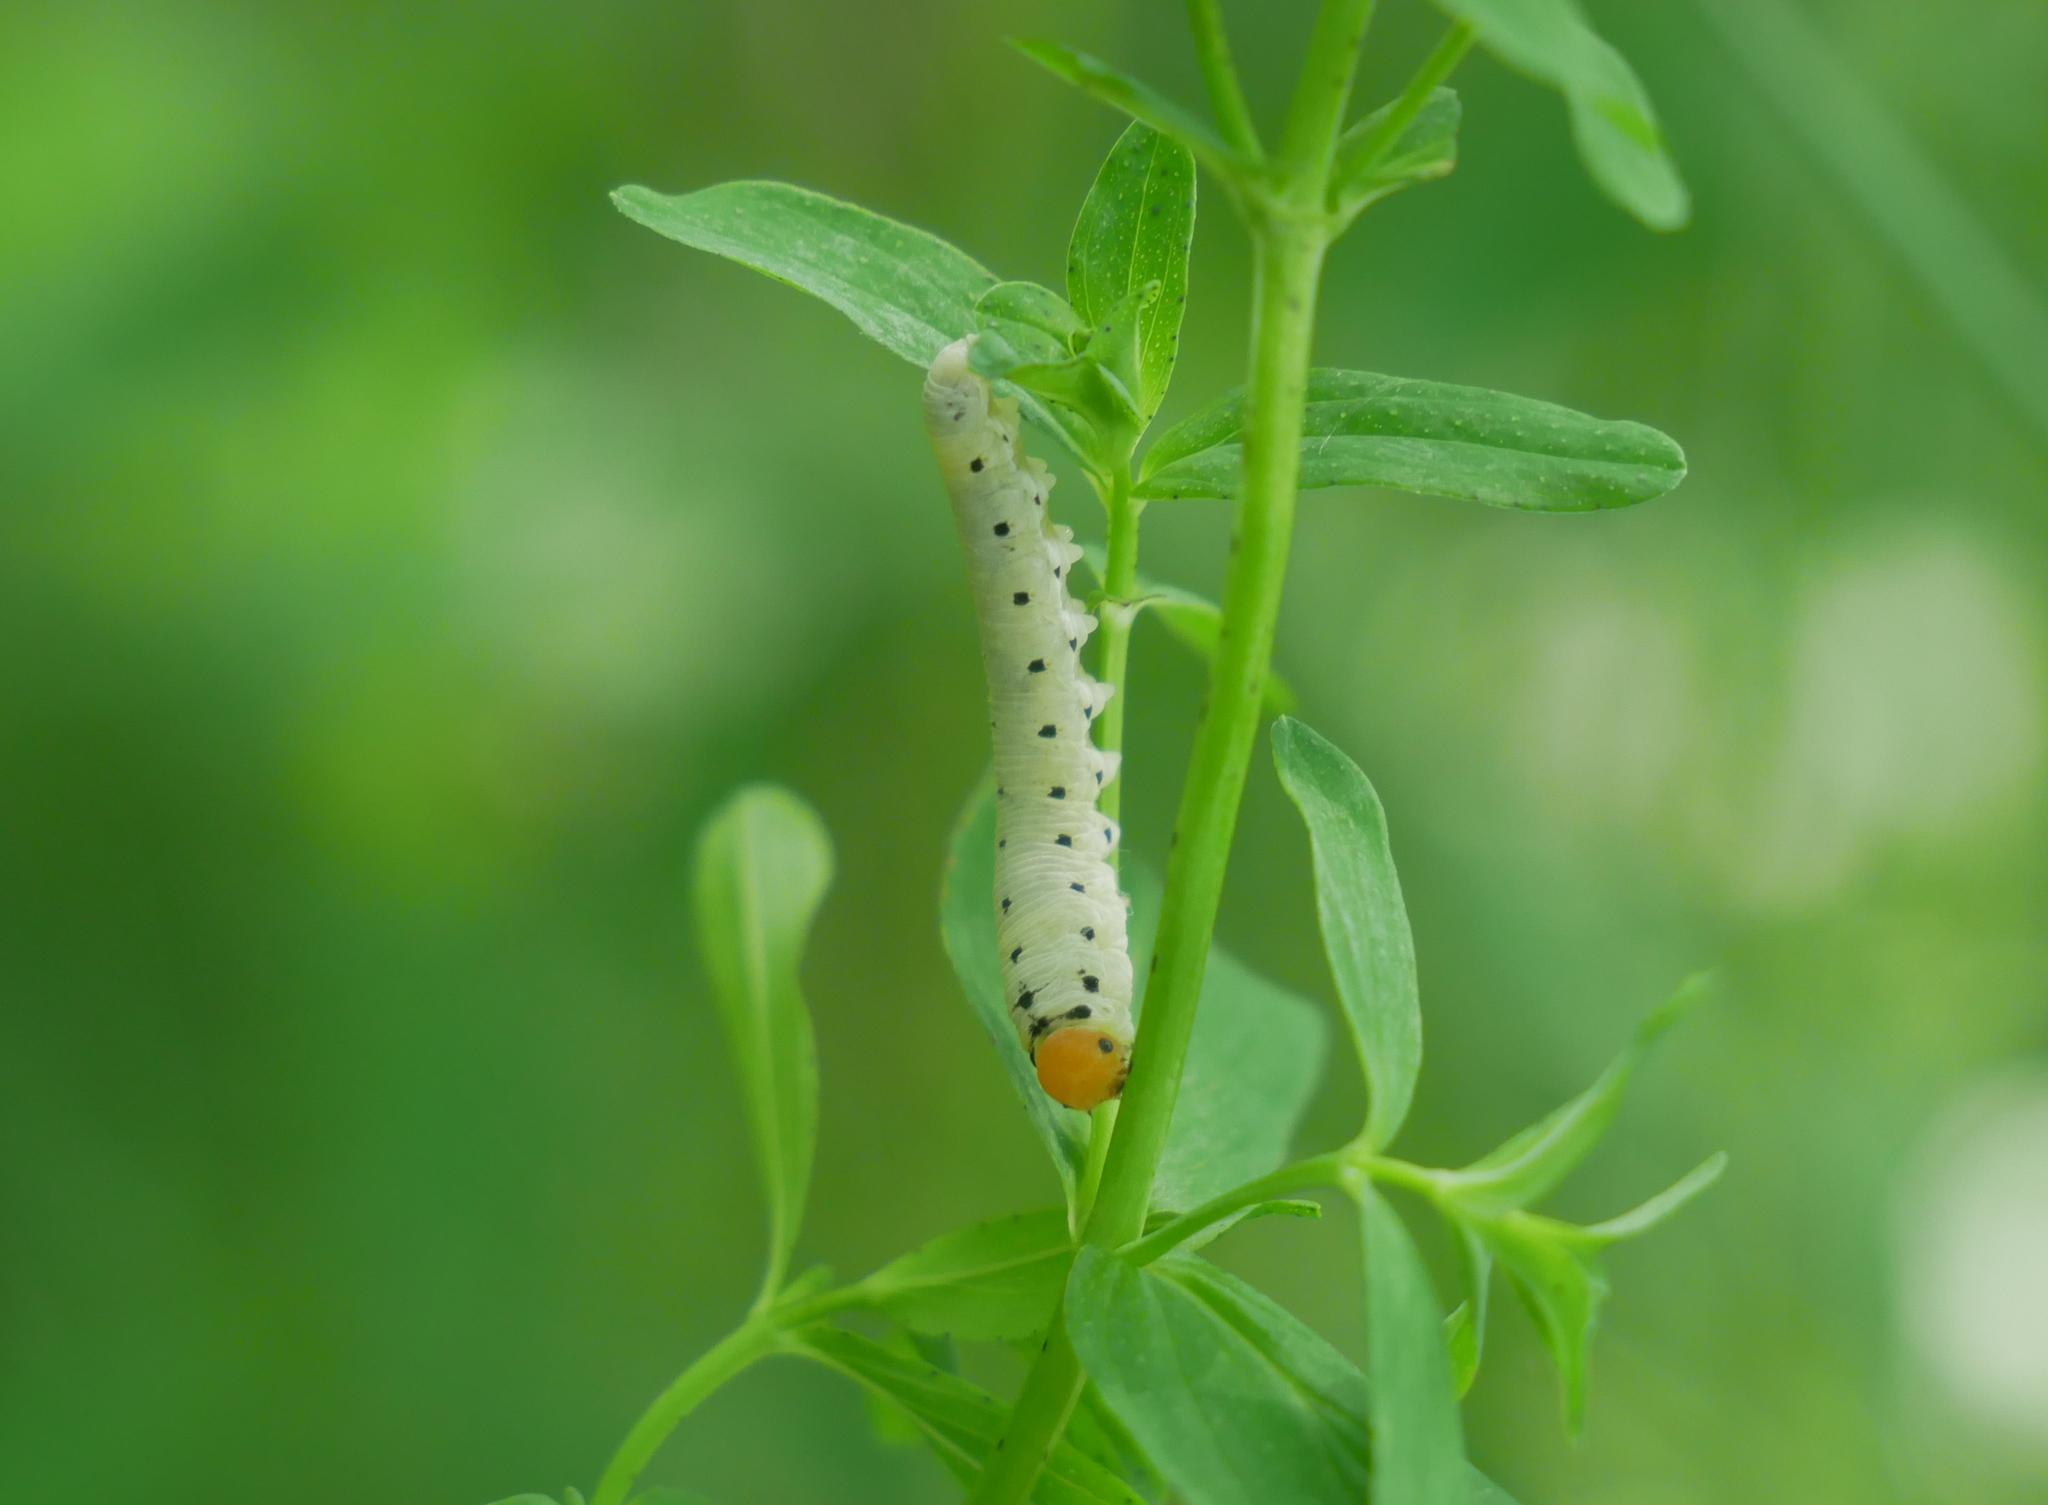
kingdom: Animalia
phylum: Arthropoda
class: Insecta
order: Hymenoptera
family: Tenthredinidae
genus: Tenthredo
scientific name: Tenthredo zona
